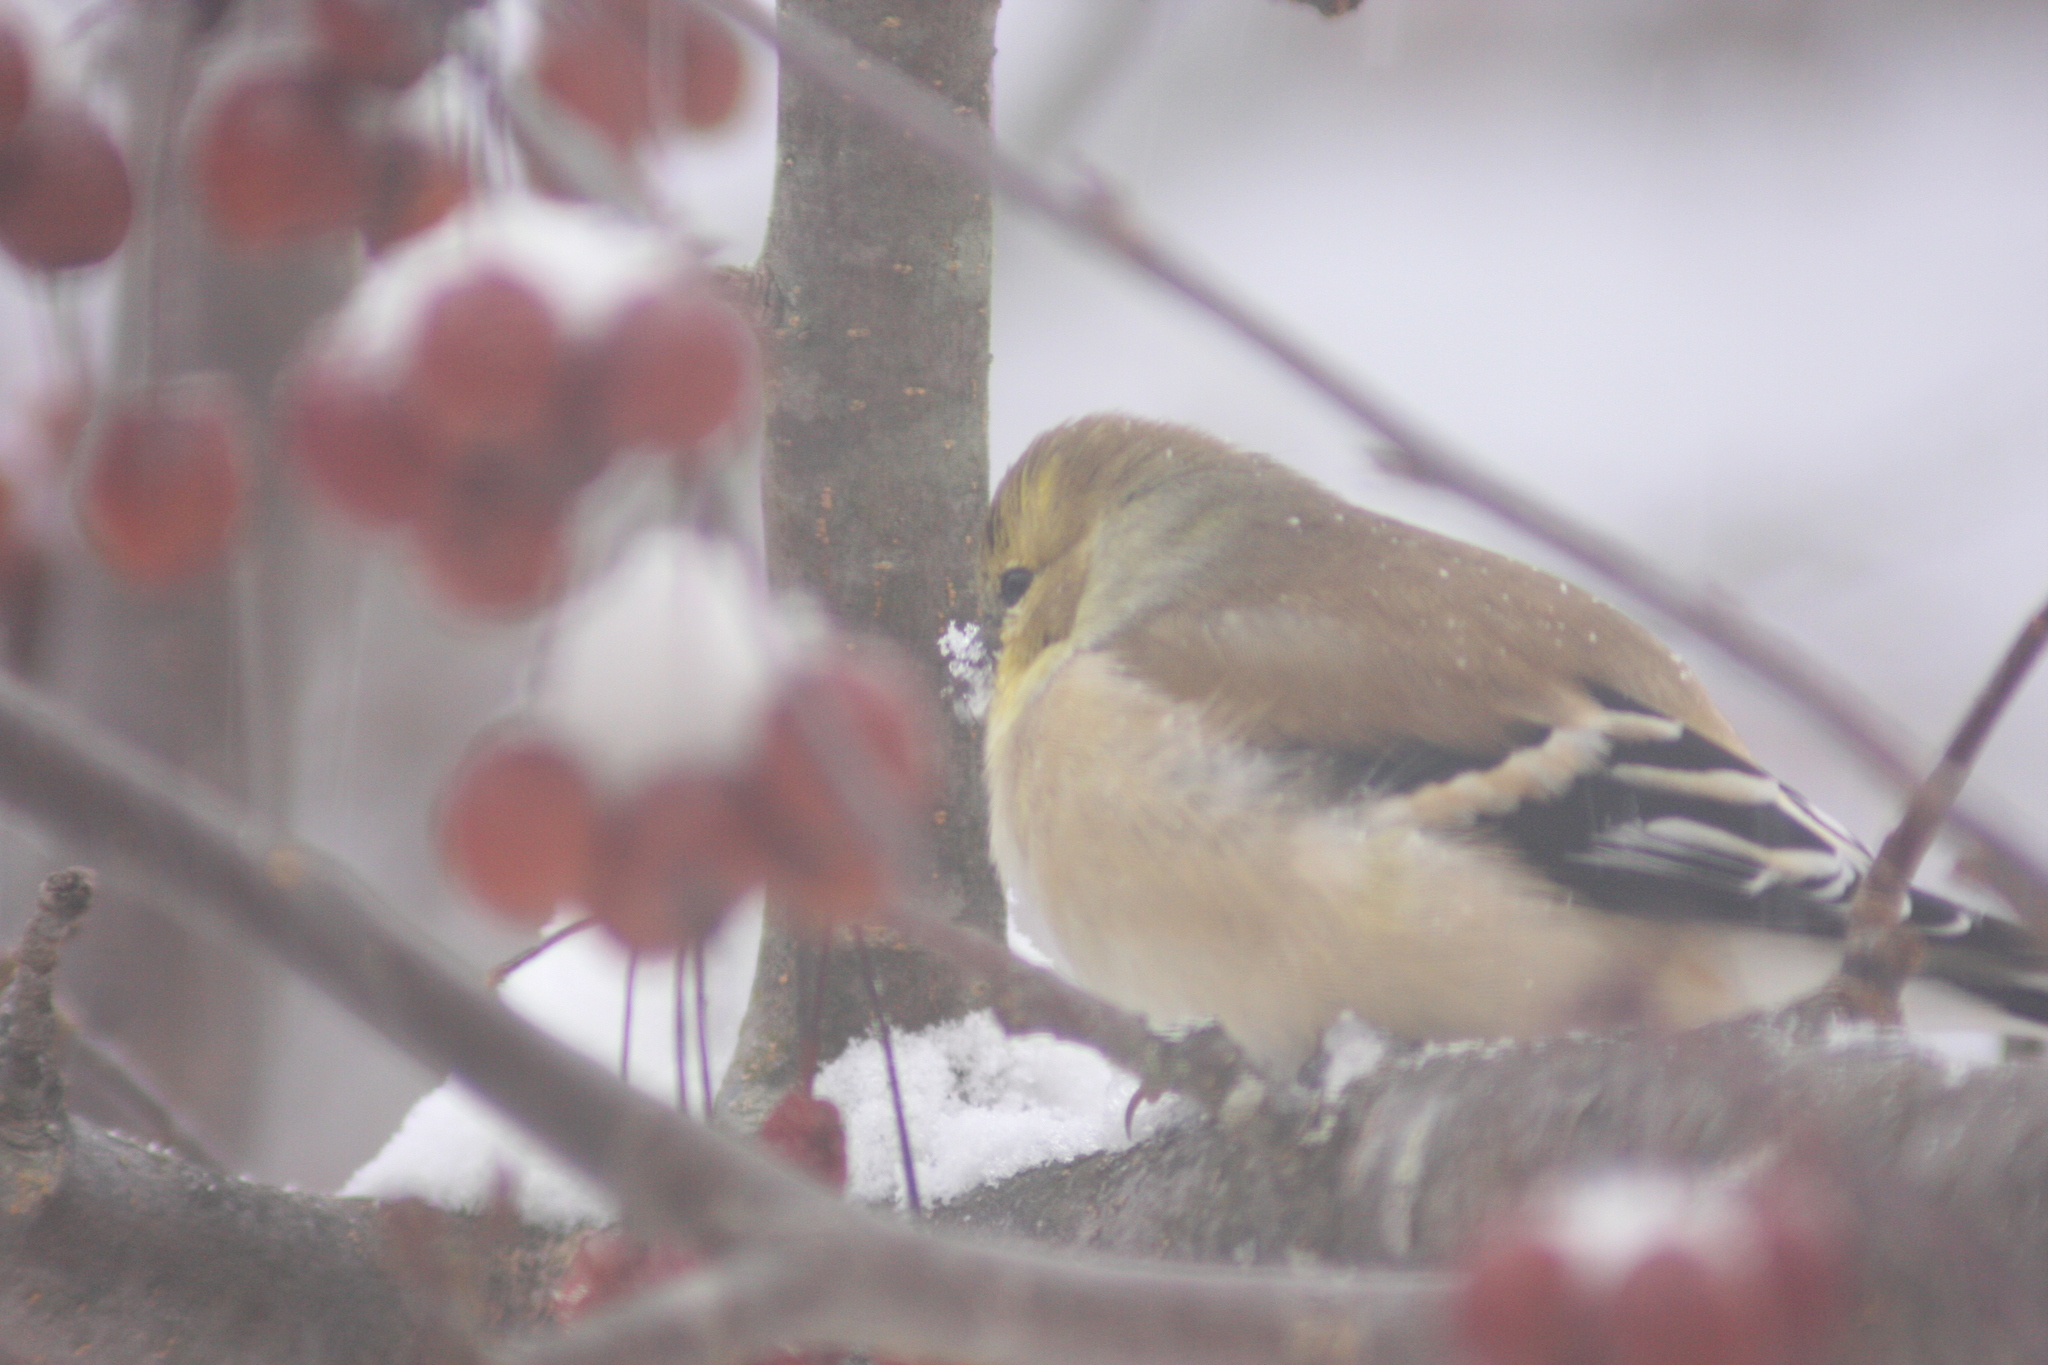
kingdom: Animalia
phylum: Chordata
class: Aves
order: Passeriformes
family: Fringillidae
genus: Spinus
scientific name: Spinus tristis
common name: American goldfinch
